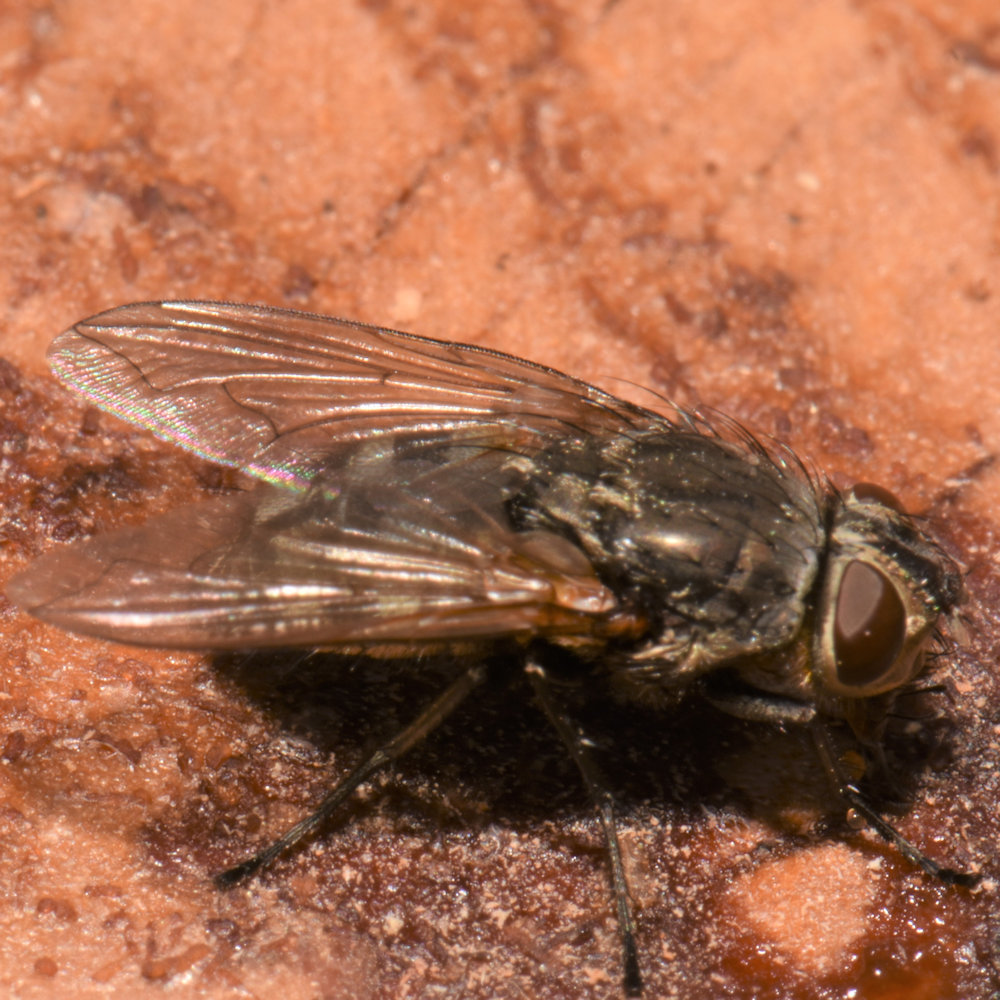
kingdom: Animalia
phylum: Arthropoda
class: Insecta
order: Diptera
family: Polleniidae
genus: Pollenia
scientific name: Pollenia
